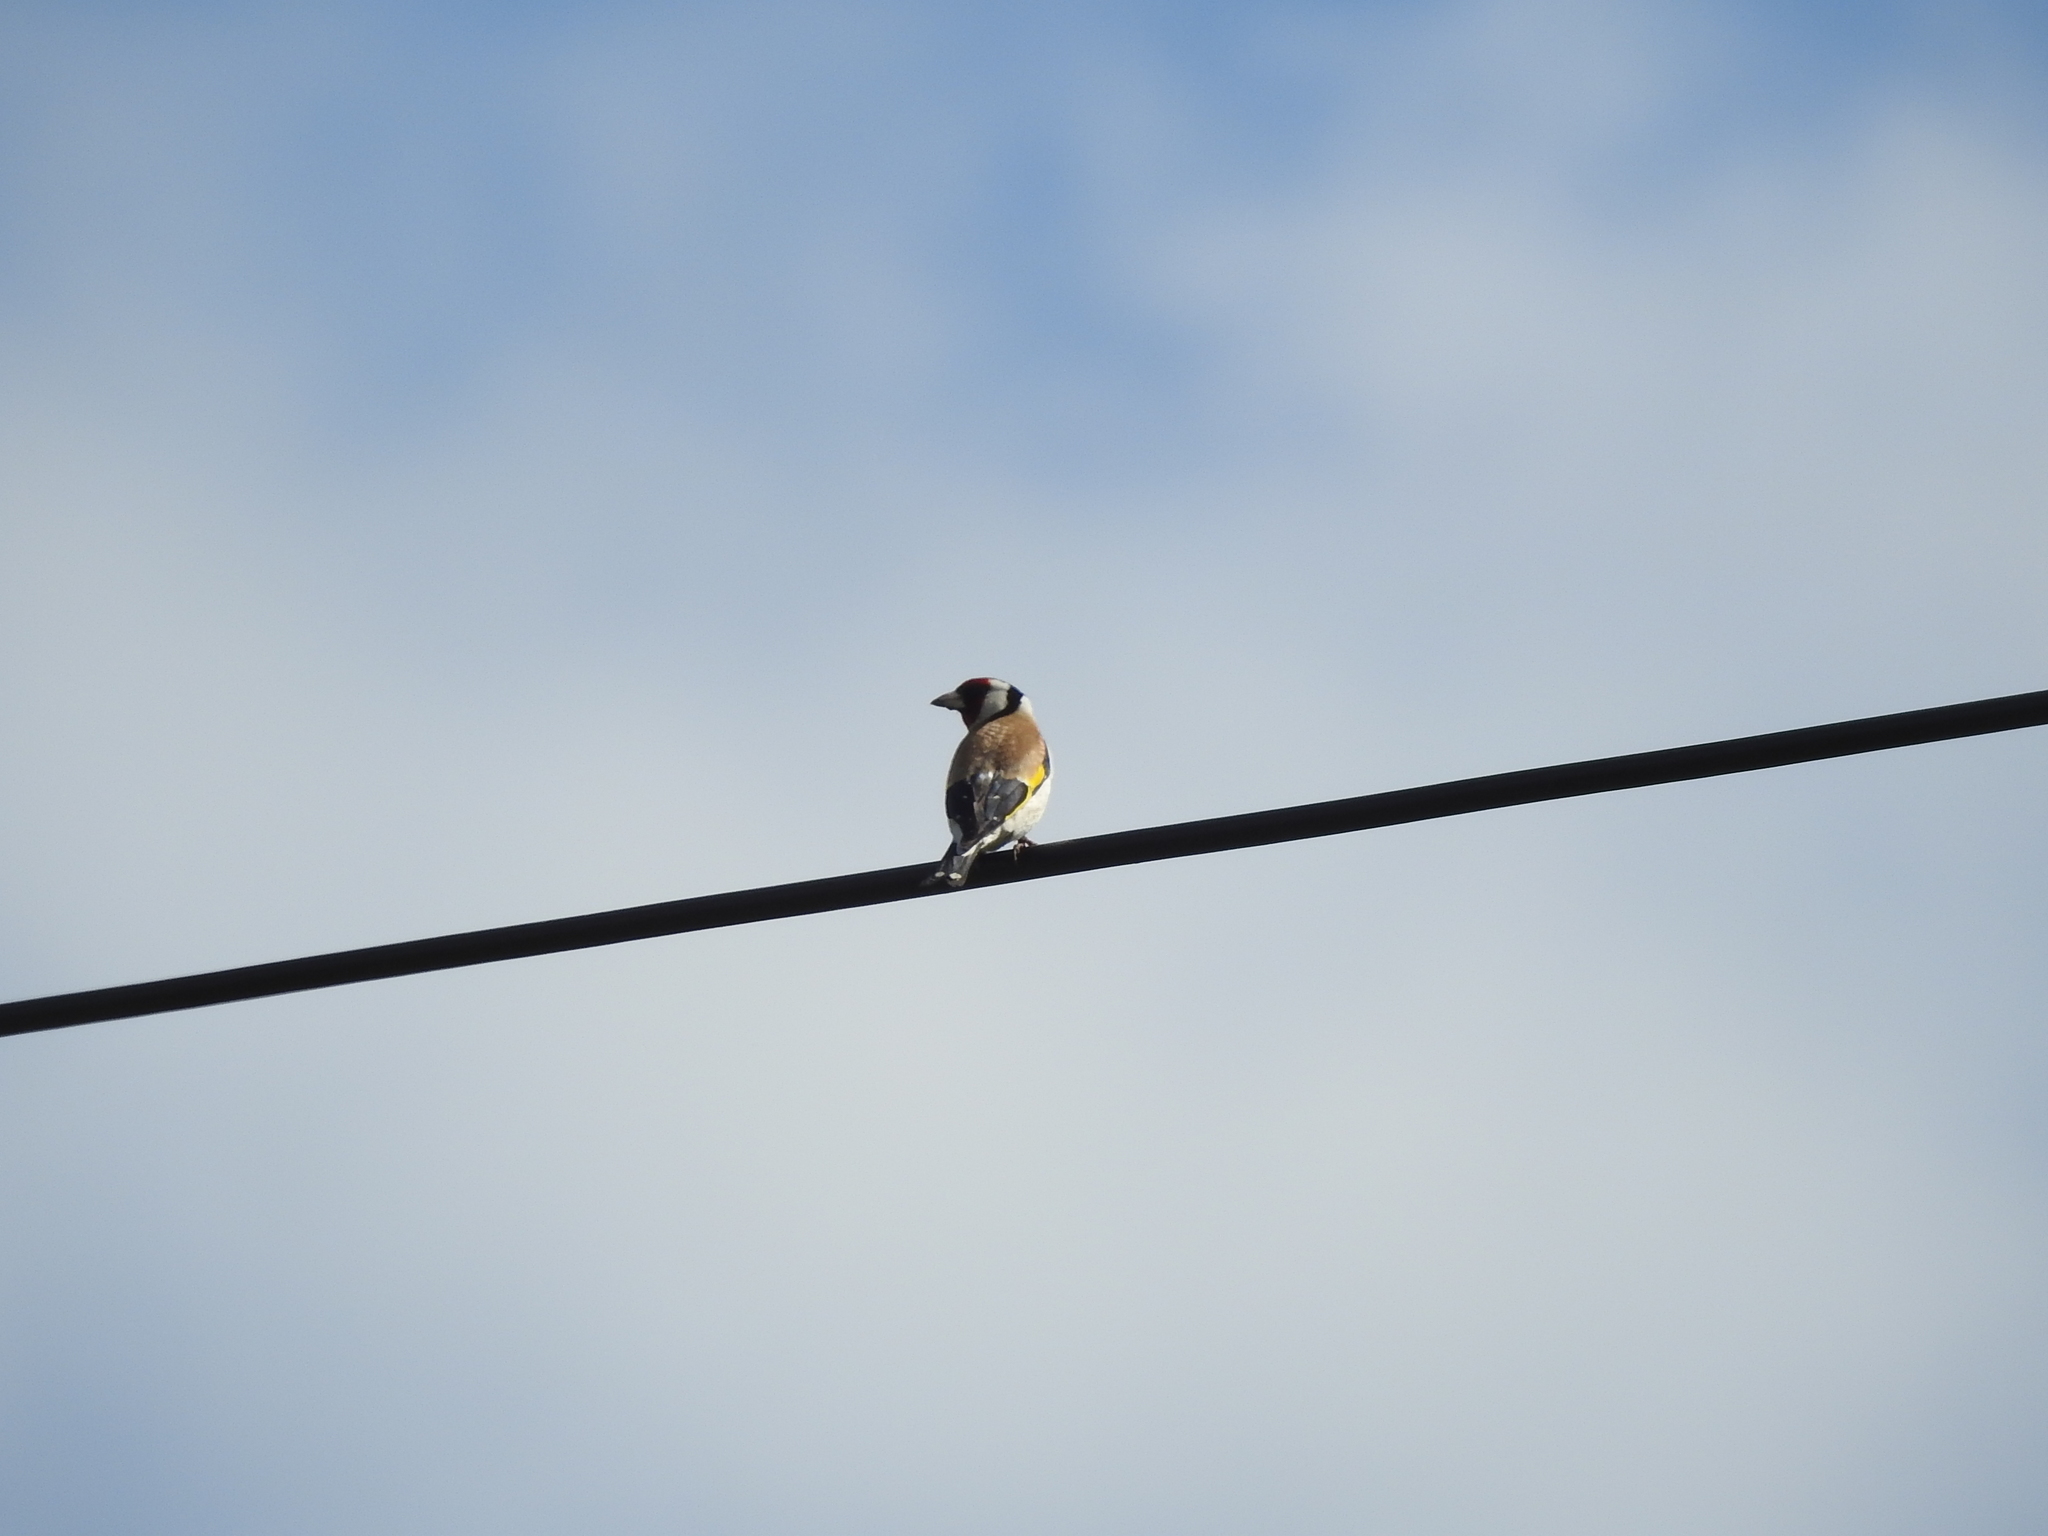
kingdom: Animalia
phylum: Chordata
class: Aves
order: Passeriformes
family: Fringillidae
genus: Carduelis
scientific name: Carduelis carduelis
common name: European goldfinch
